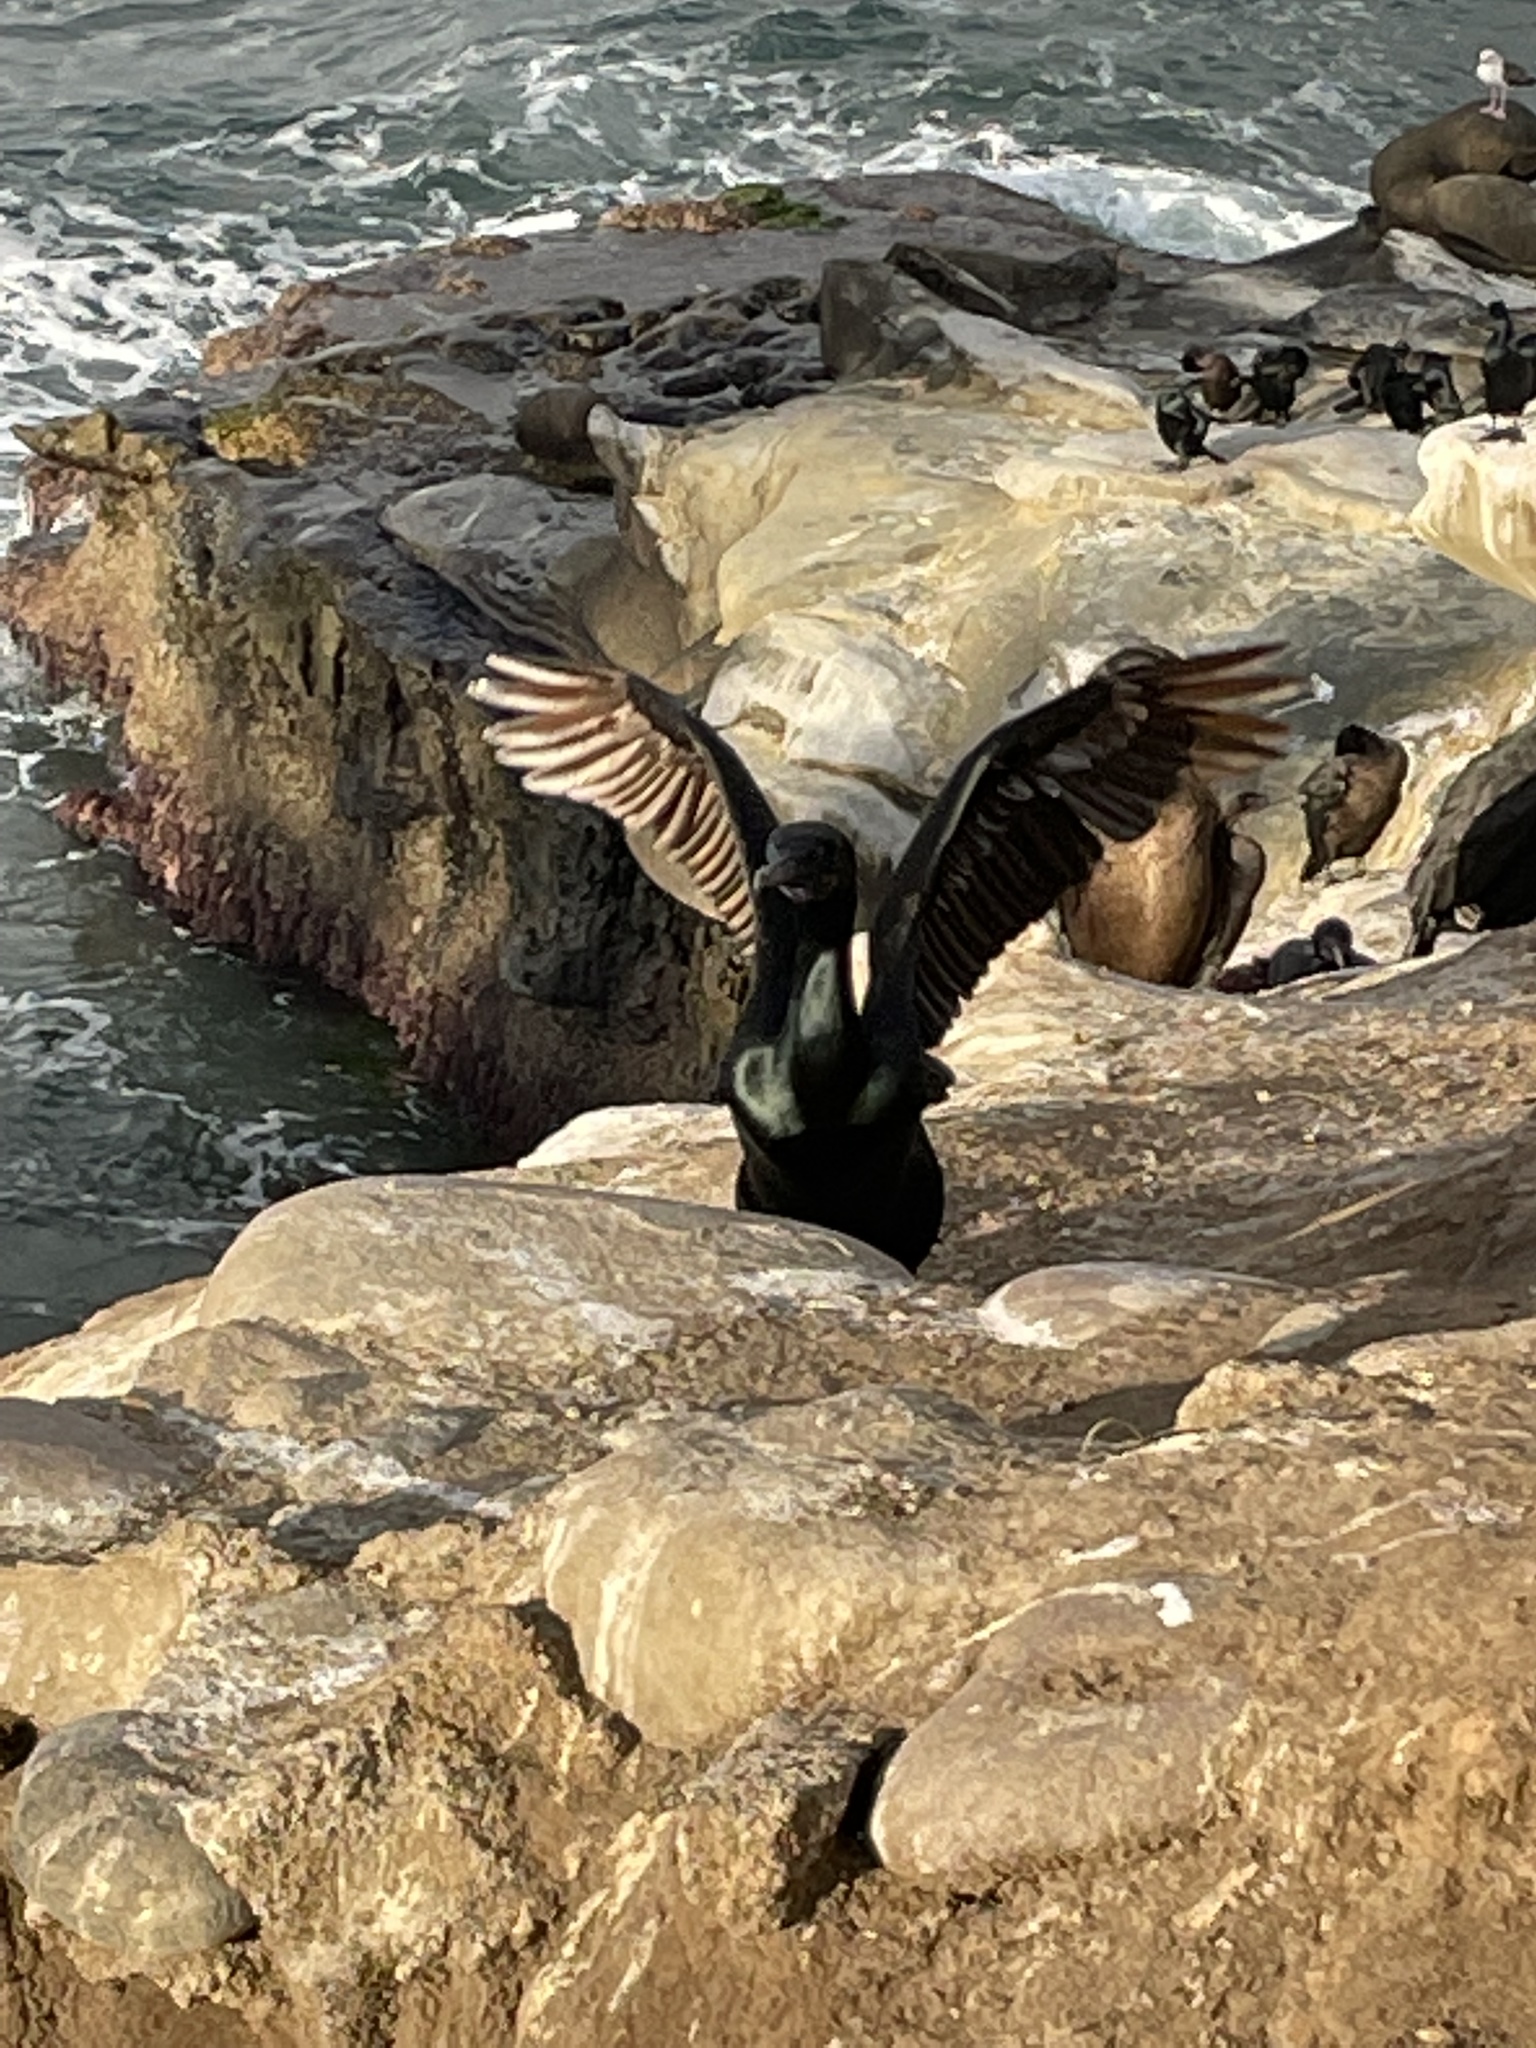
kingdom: Animalia
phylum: Chordata
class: Aves
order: Suliformes
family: Phalacrocoracidae
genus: Urile
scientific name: Urile penicillatus
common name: Brandt's cormorant
